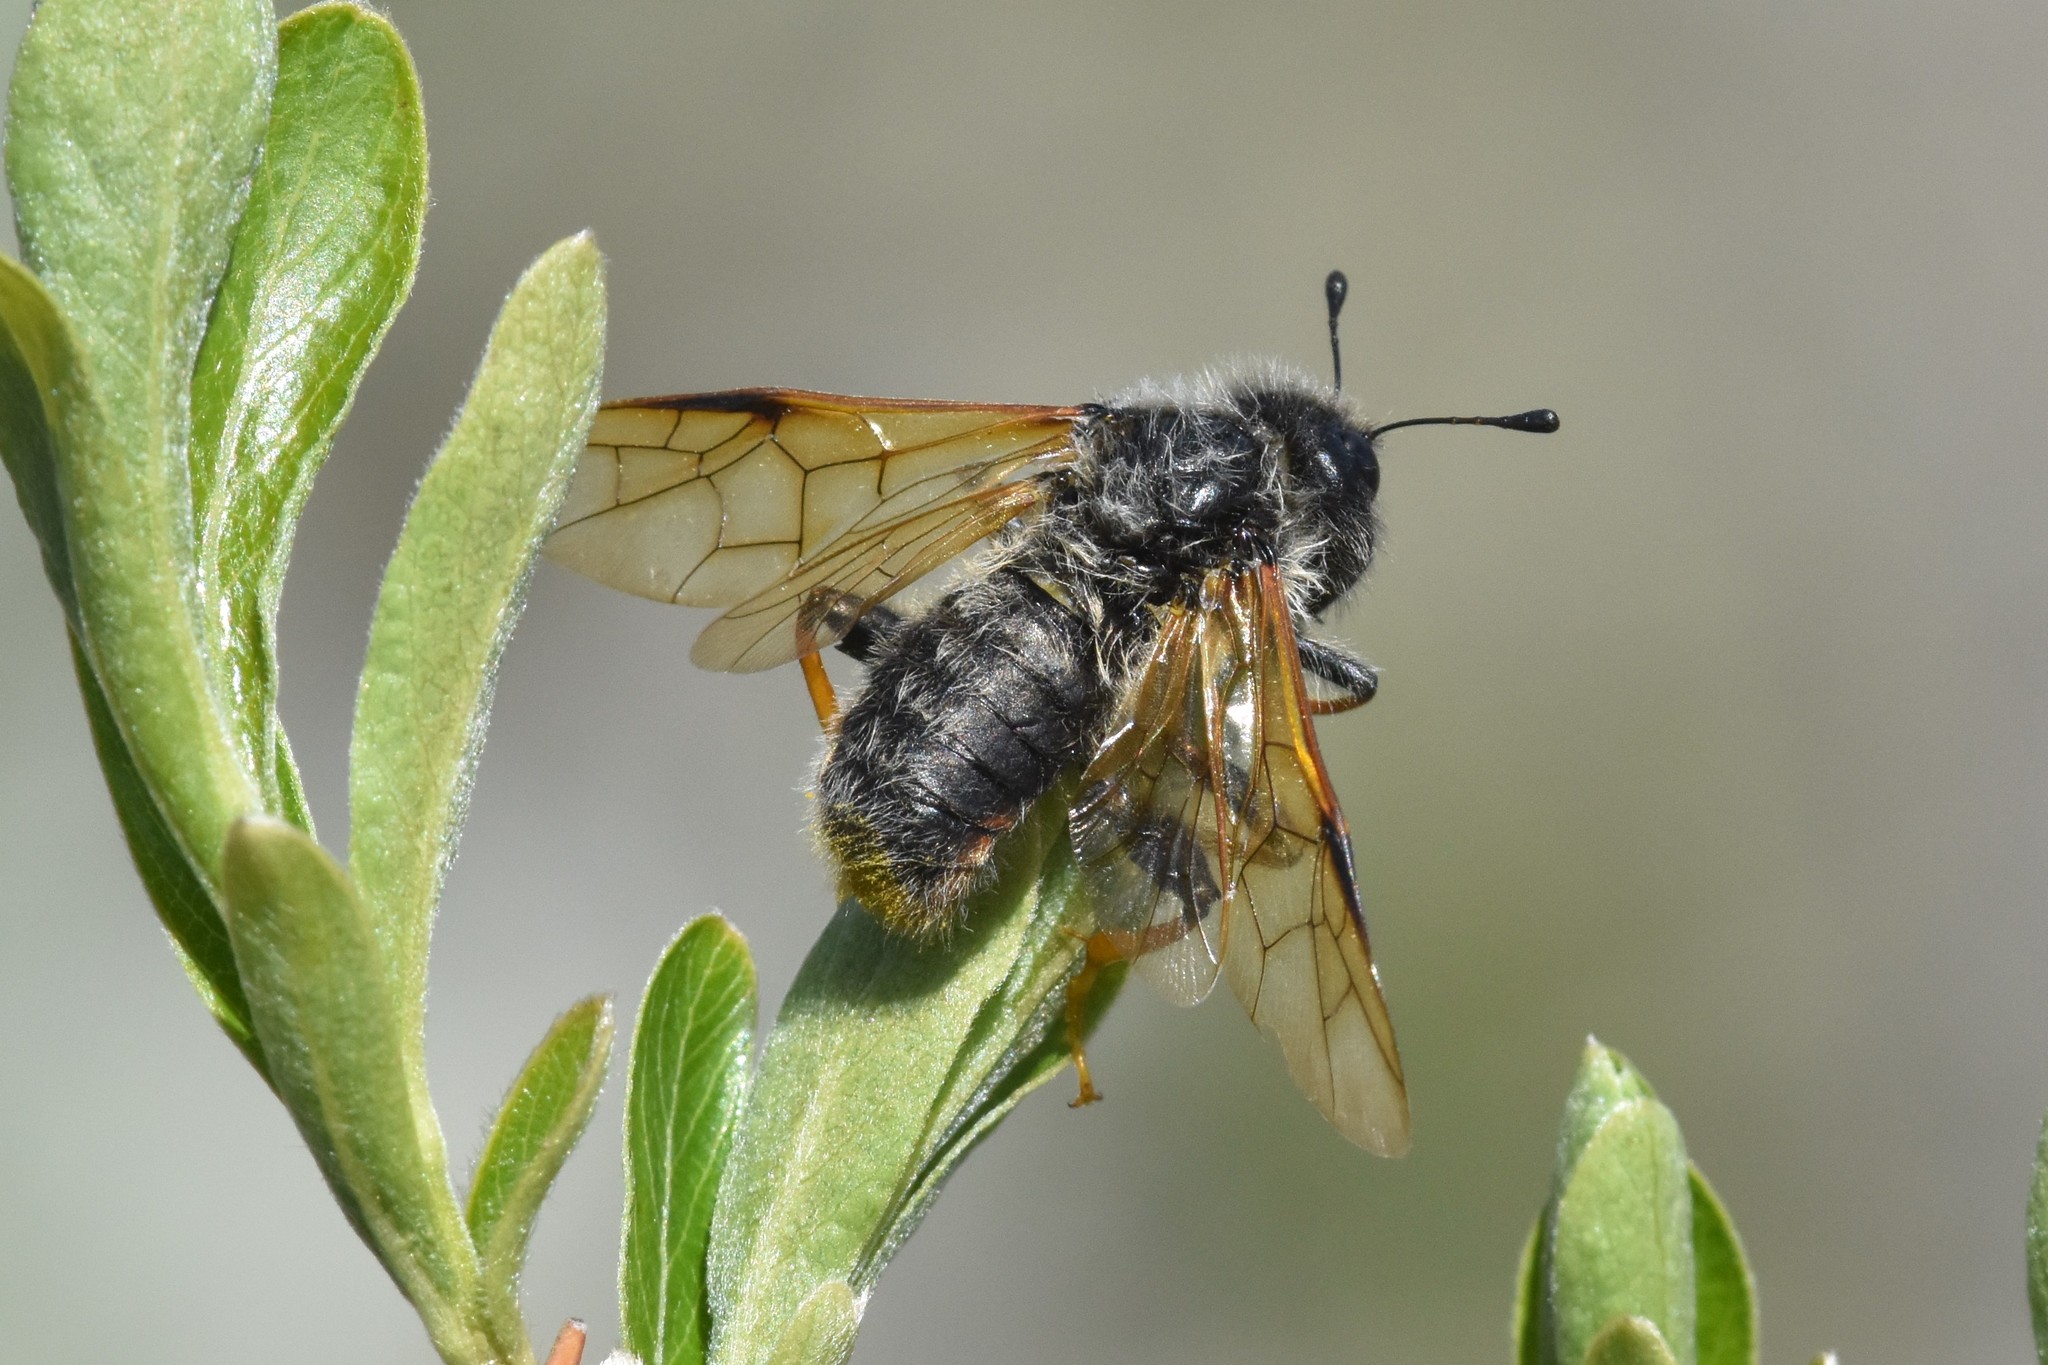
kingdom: Animalia
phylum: Arthropoda
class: Insecta
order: Hymenoptera
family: Cimbicidae
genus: Trichiosoma
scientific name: Trichiosoma triangulum
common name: Giant birch sawfly
